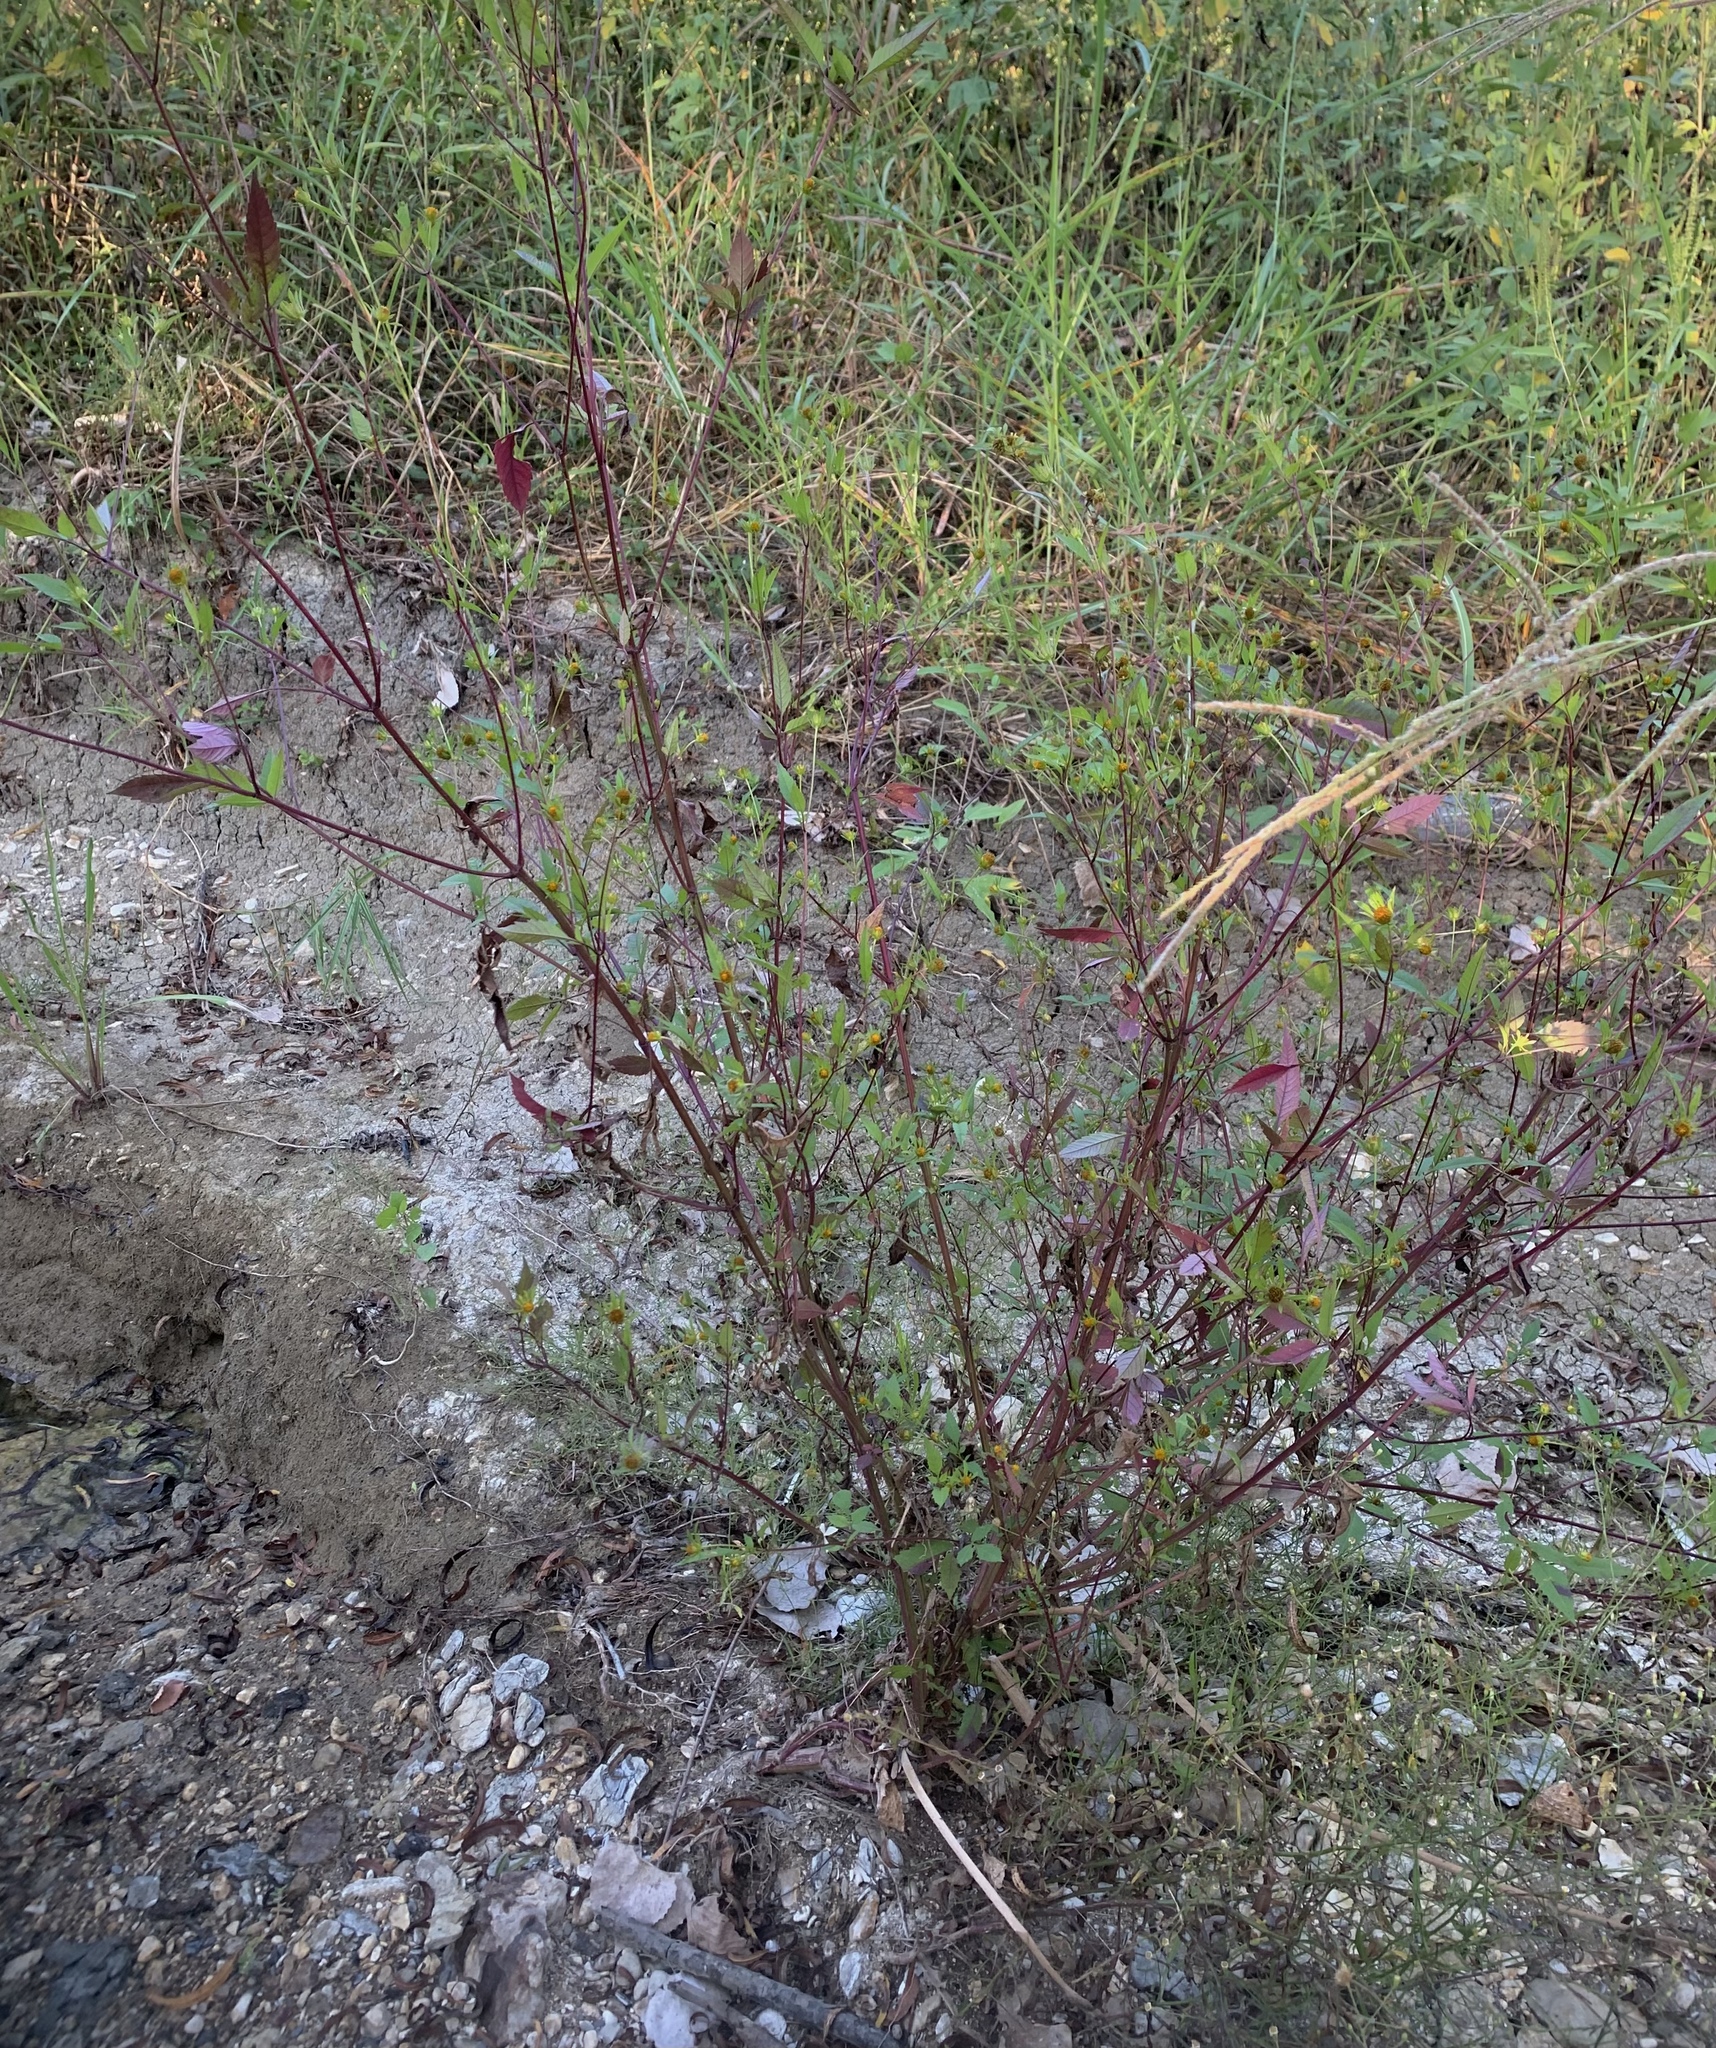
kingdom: Plantae
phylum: Tracheophyta
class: Magnoliopsida
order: Asterales
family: Asteraceae
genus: Bidens
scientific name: Bidens frondosa
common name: Beggarticks
